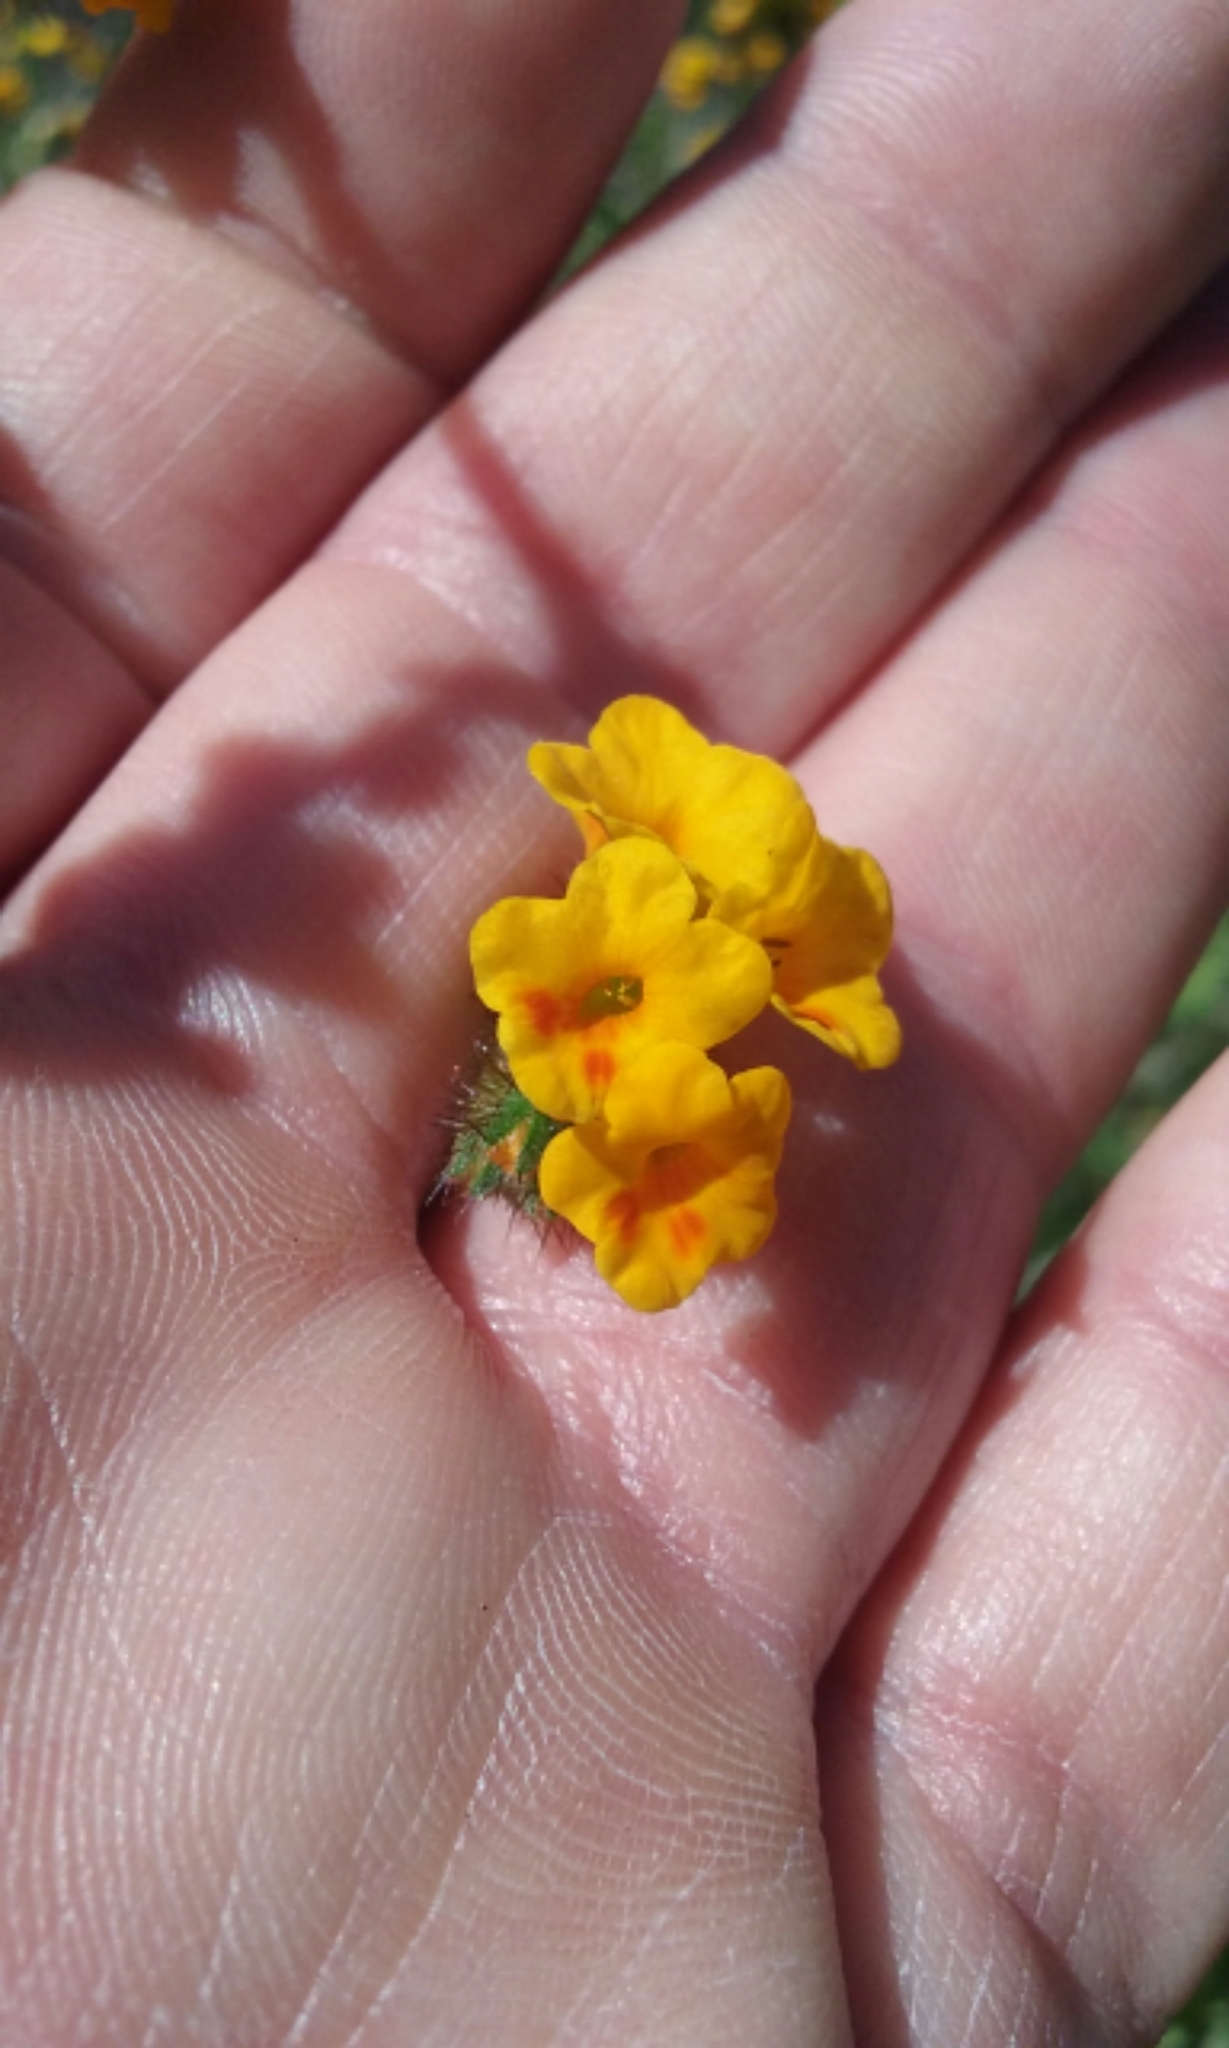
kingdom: Plantae
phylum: Tracheophyta
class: Magnoliopsida
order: Boraginales
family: Boraginaceae
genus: Amsinckia
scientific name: Amsinckia lunaris
